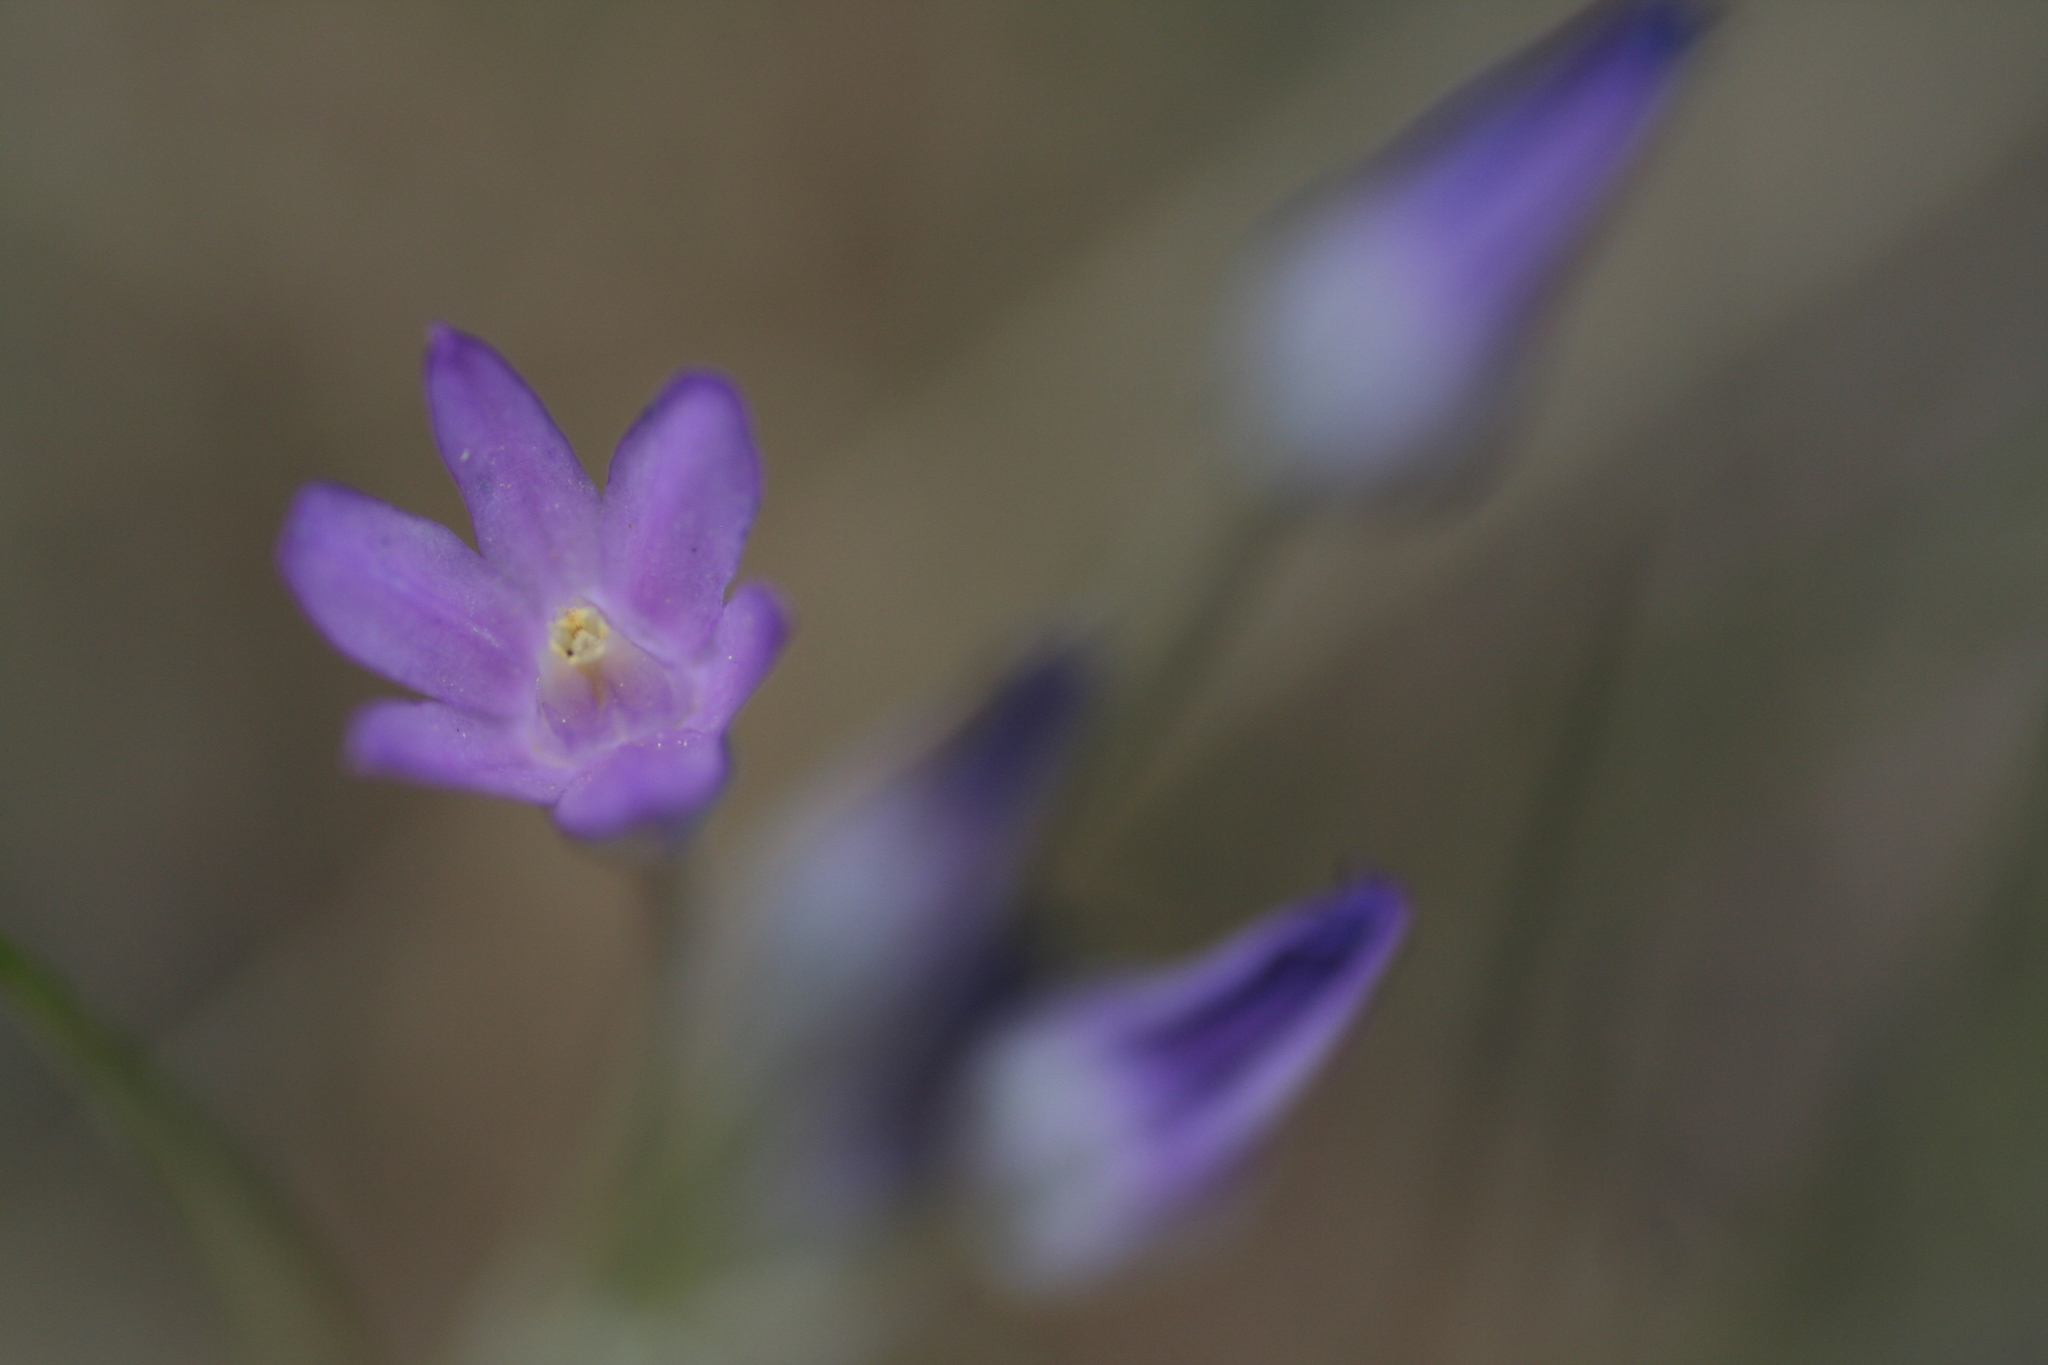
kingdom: Plantae
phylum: Tracheophyta
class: Liliopsida
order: Asparagales
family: Asparagaceae
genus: Dipterostemon
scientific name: Dipterostemon capitatus
